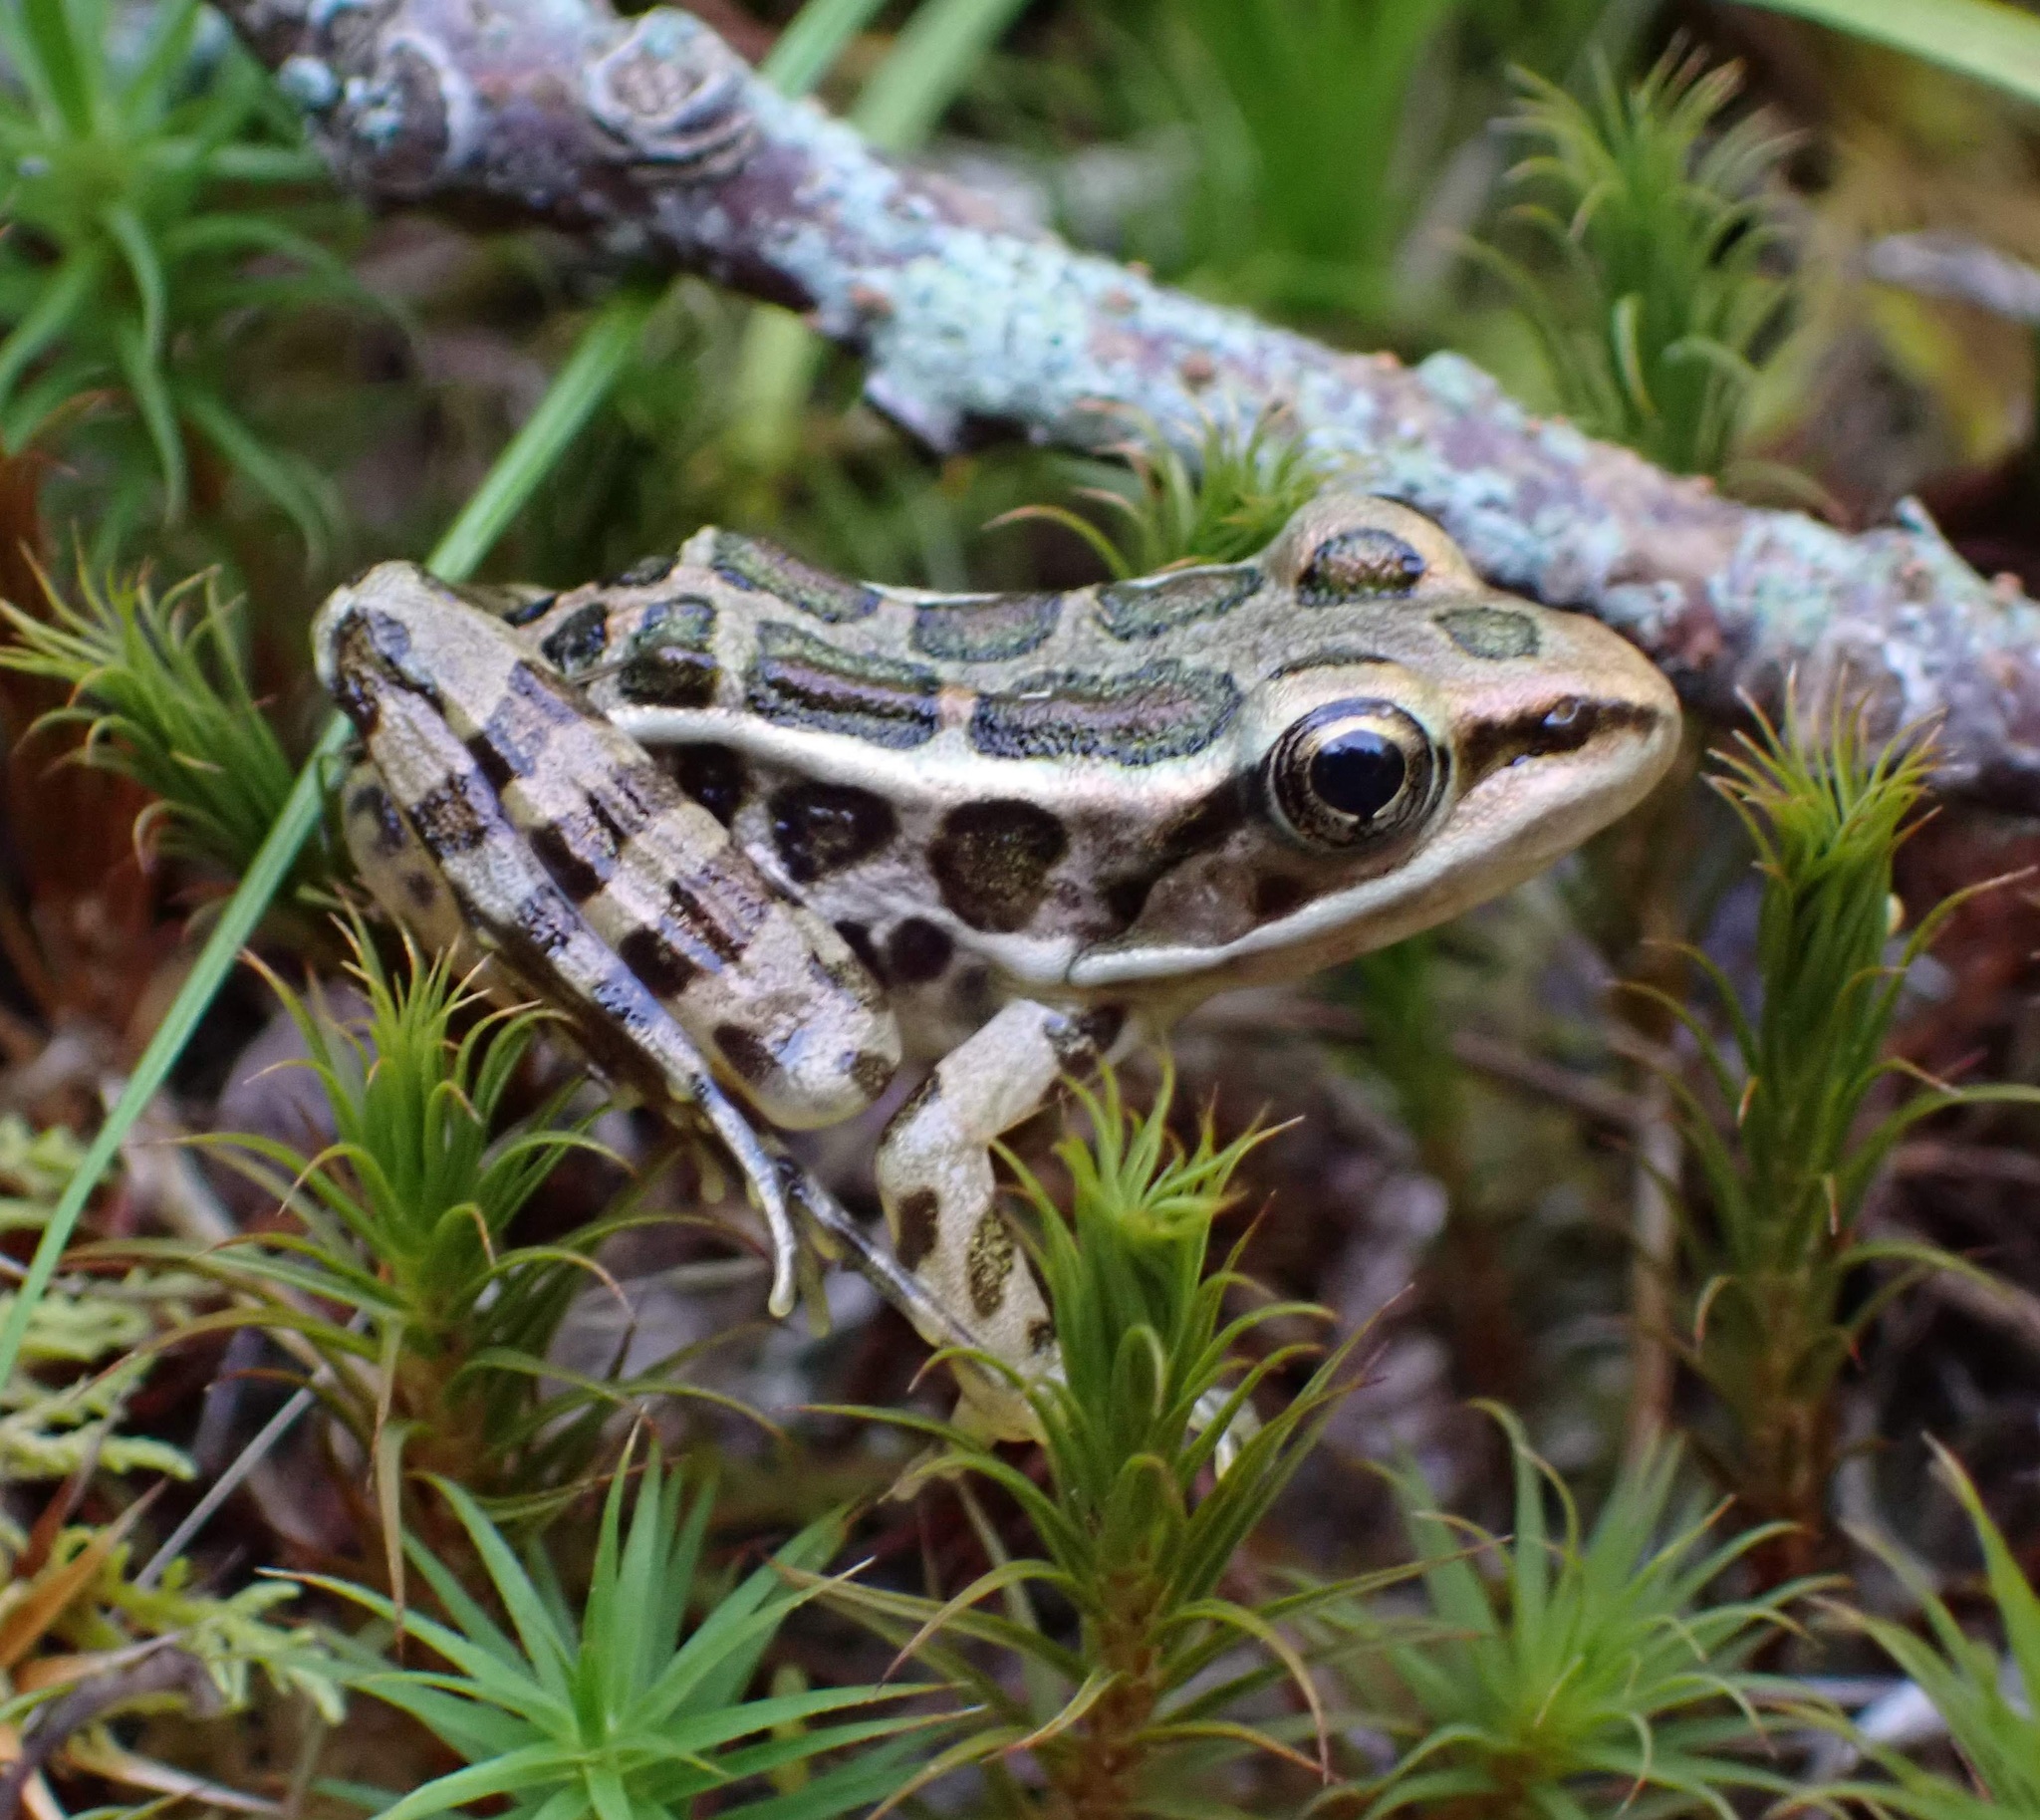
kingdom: Animalia
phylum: Chordata
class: Amphibia
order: Anura
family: Ranidae
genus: Lithobates
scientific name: Lithobates palustris
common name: Pickerel frog
